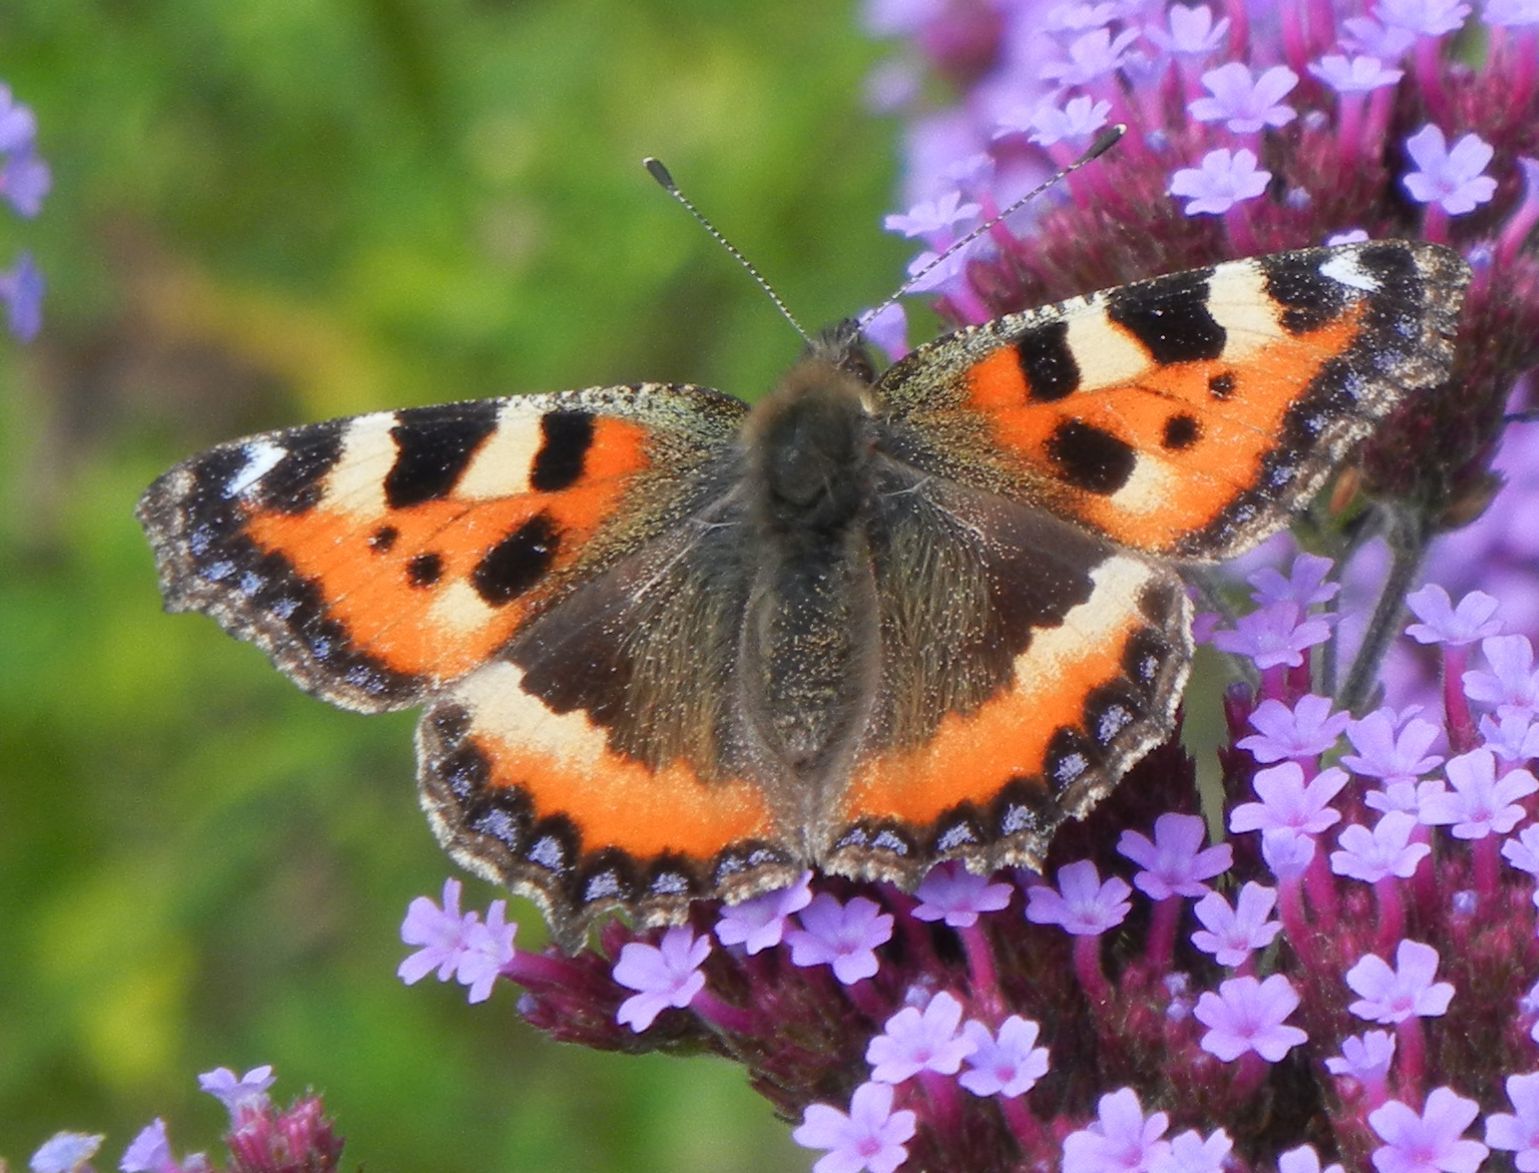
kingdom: Animalia
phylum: Arthropoda
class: Insecta
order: Lepidoptera
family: Nymphalidae
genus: Aglais
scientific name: Aglais urticae
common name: Small tortoiseshell
